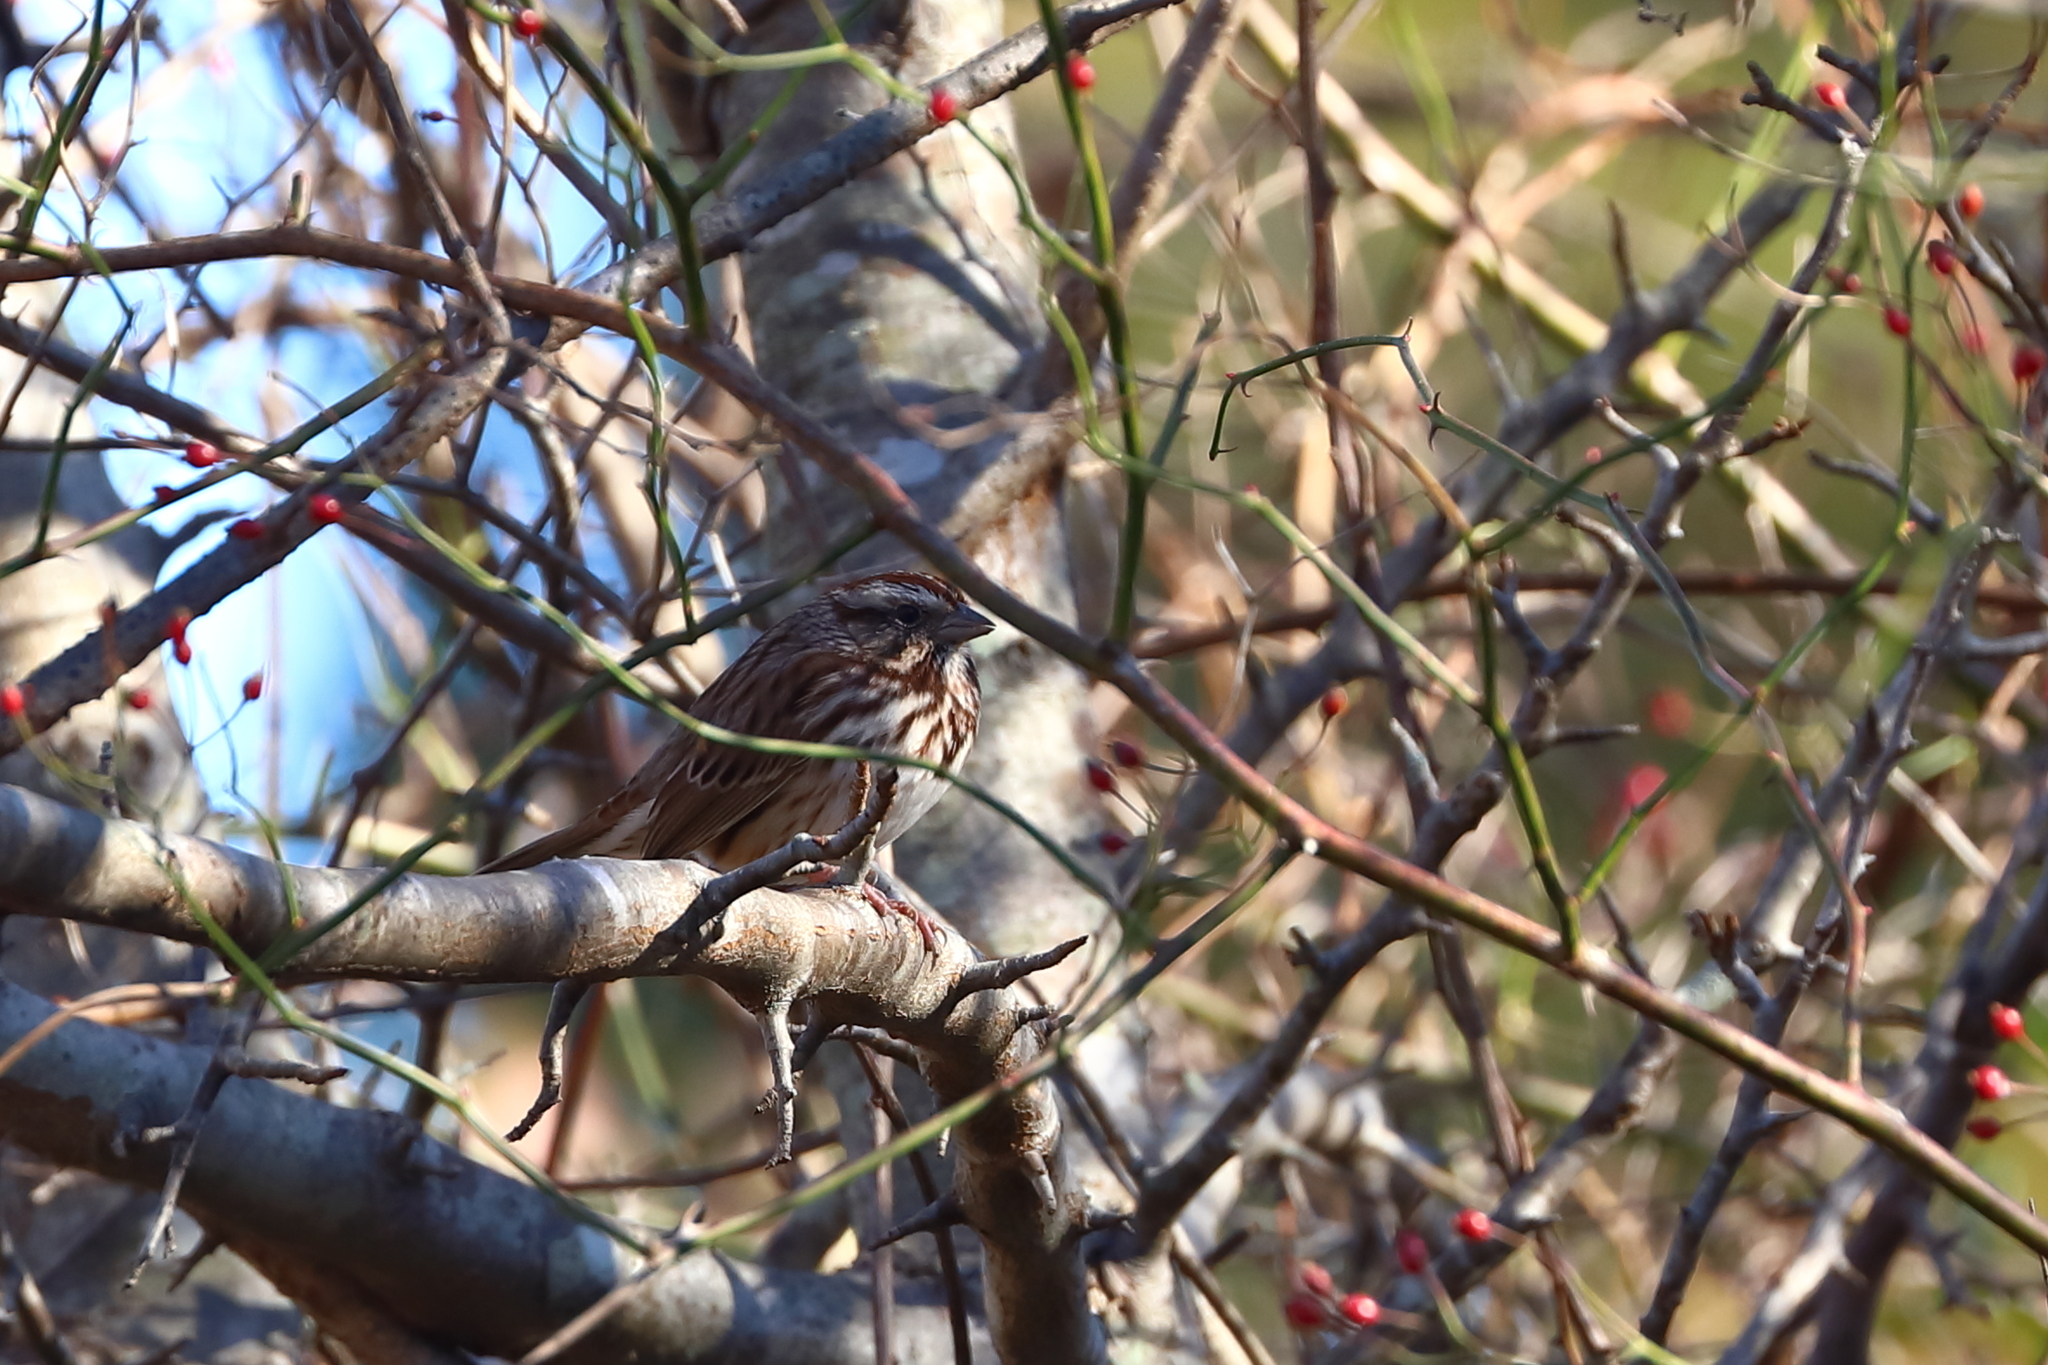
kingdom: Animalia
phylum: Chordata
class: Aves
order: Passeriformes
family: Passerellidae
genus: Melospiza
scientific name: Melospiza melodia
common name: Song sparrow
